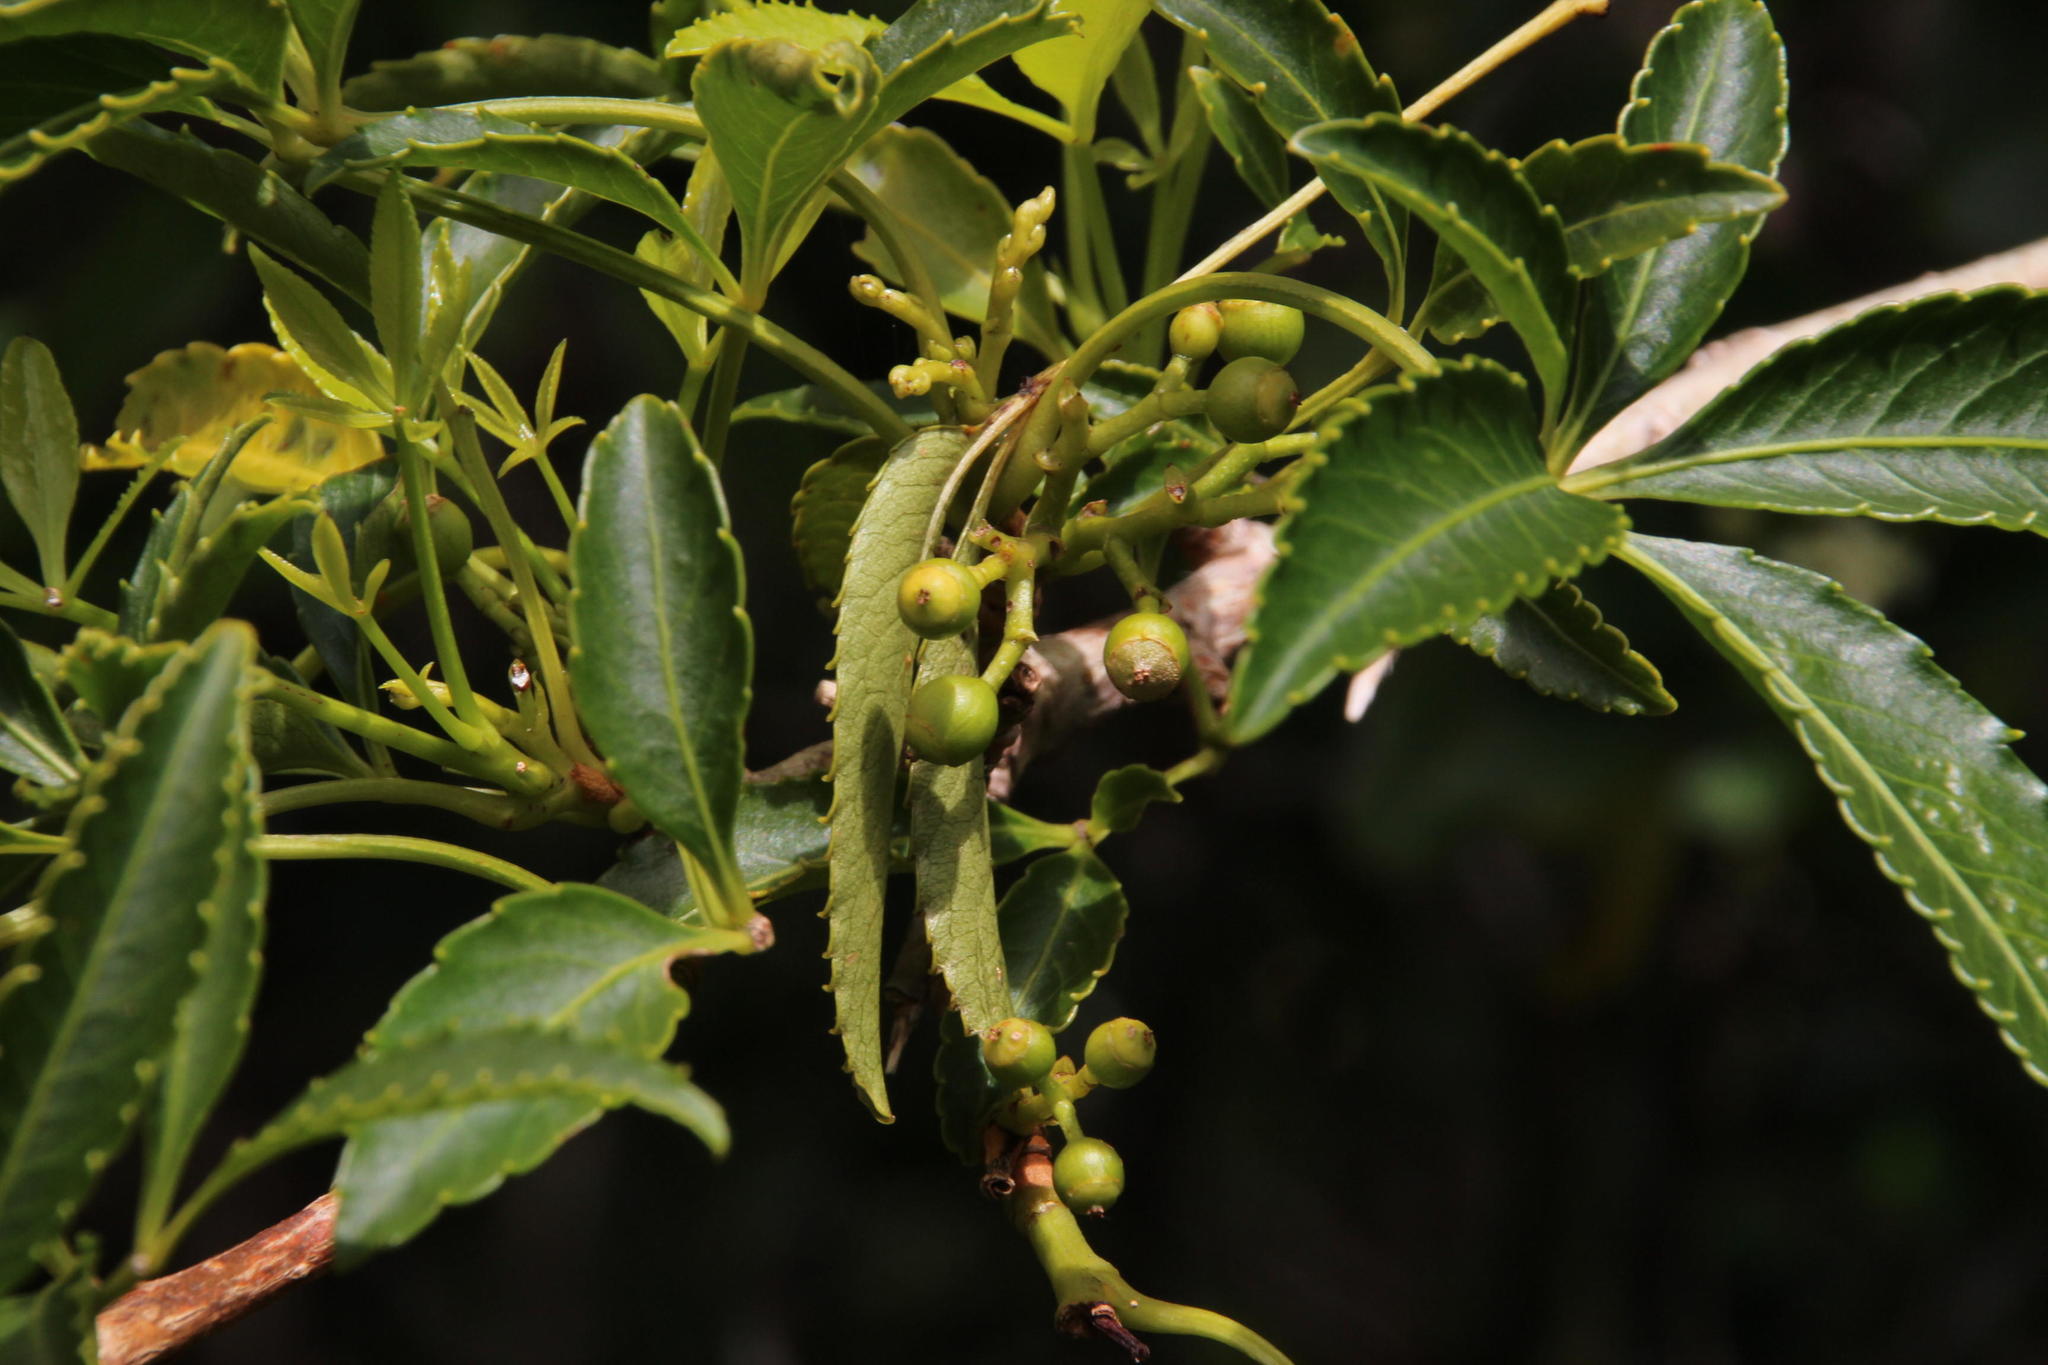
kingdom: Plantae
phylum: Tracheophyta
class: Magnoliopsida
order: Apiales
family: Araliaceae
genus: Raukaua
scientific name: Raukaua laetevirens
